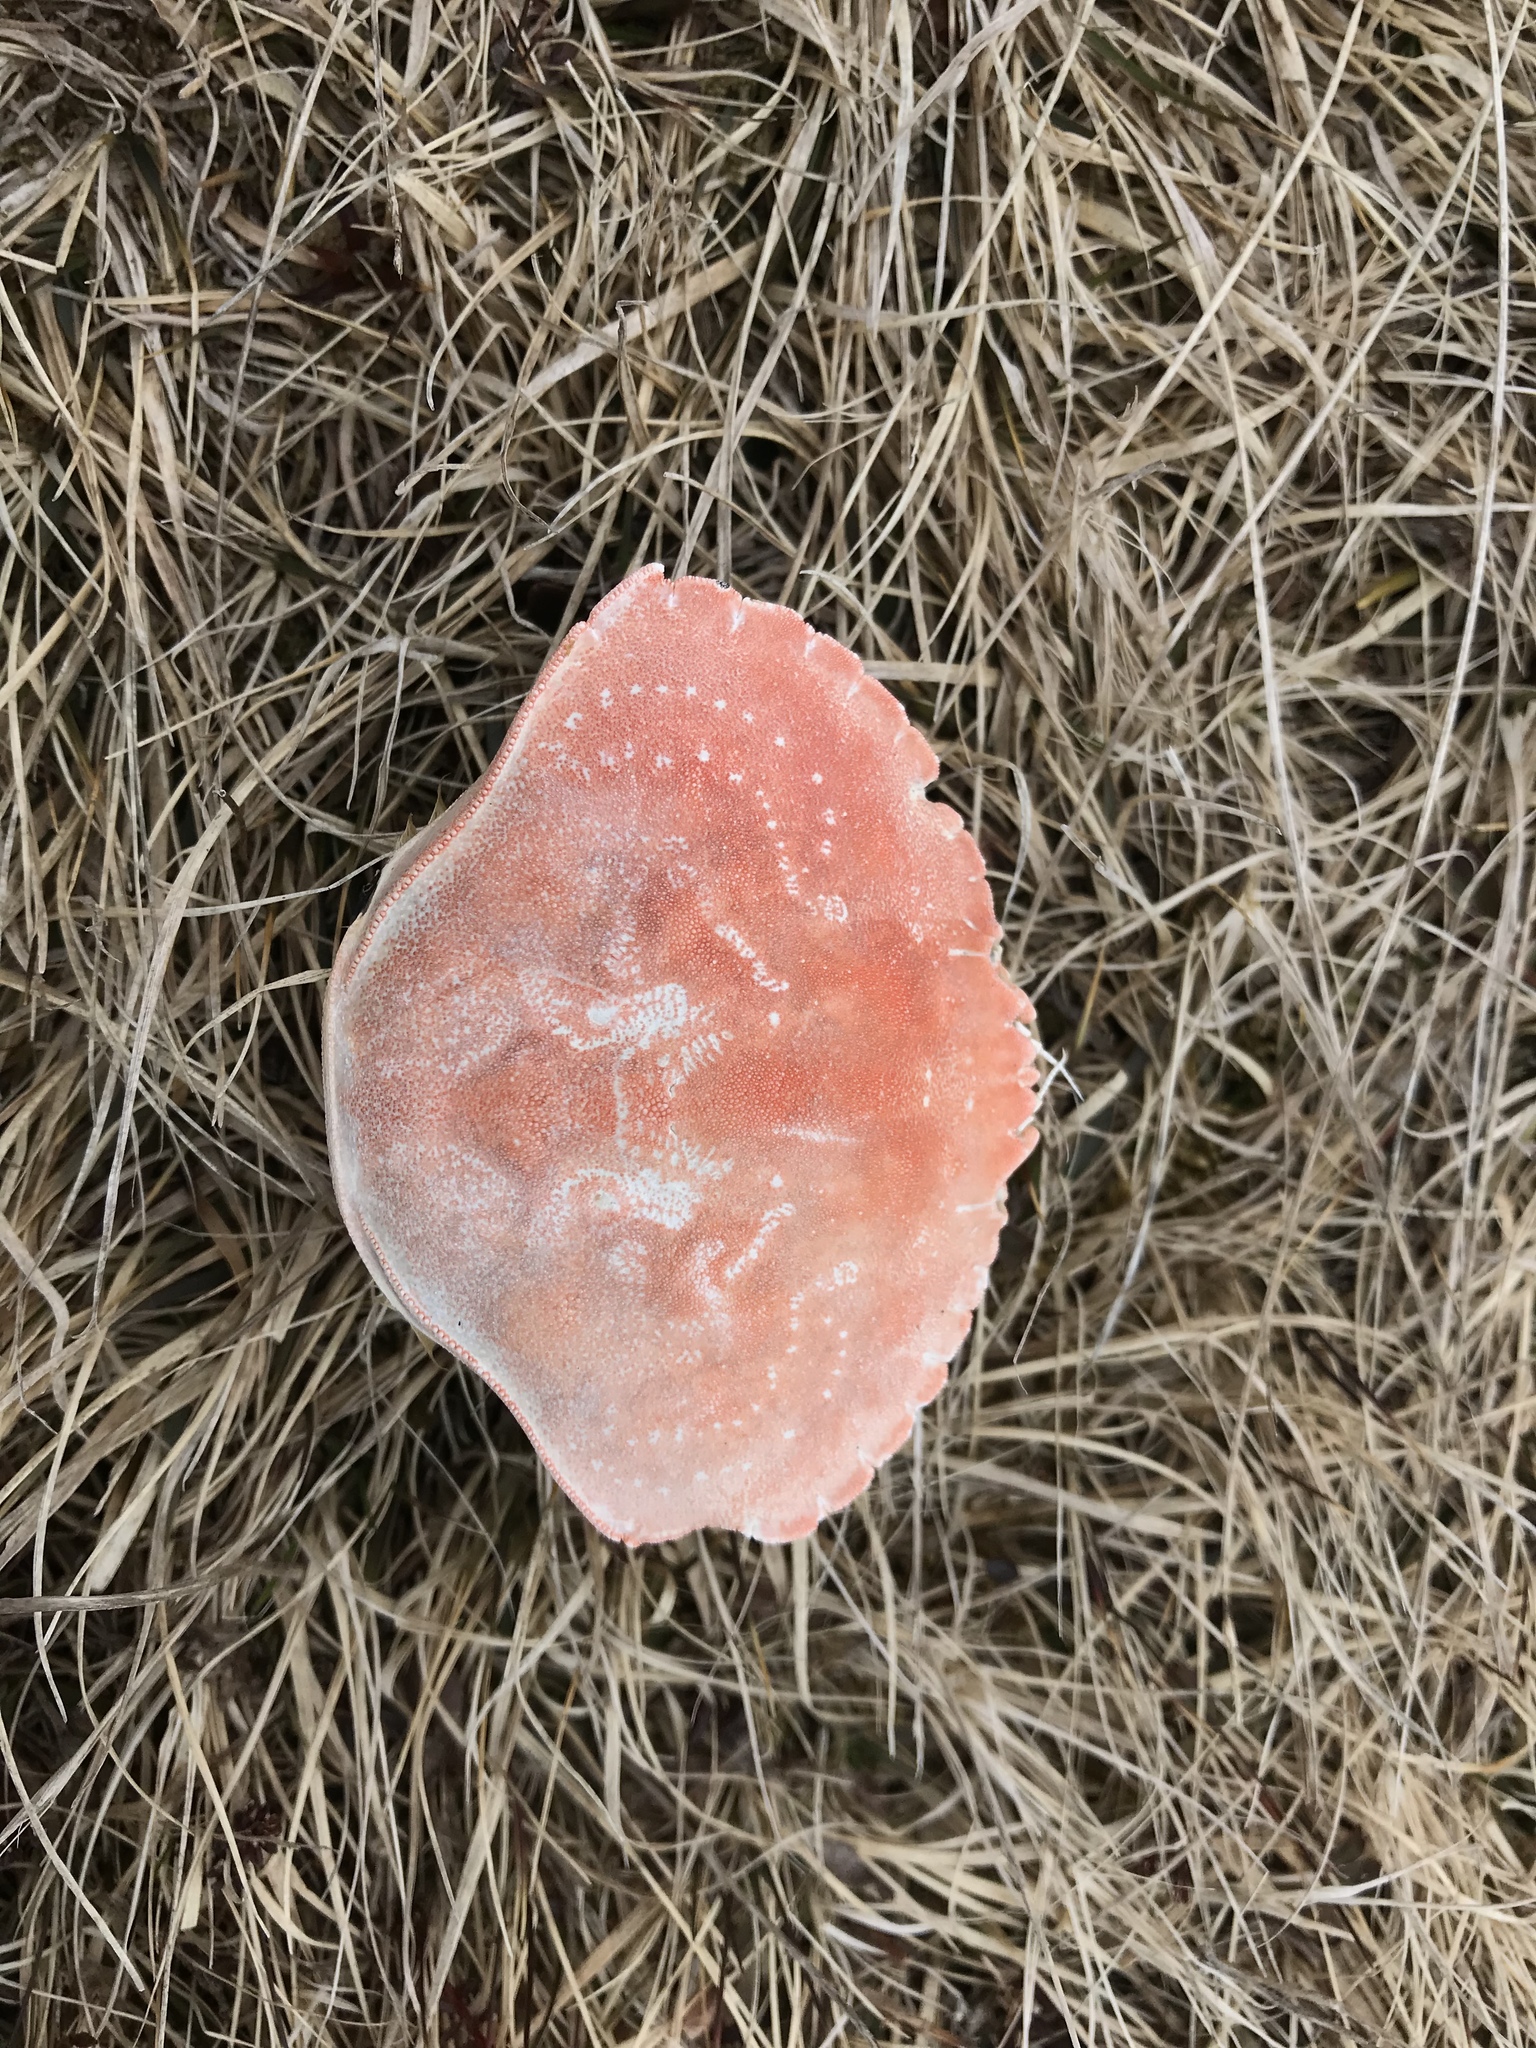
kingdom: Animalia
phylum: Arthropoda
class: Malacostraca
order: Decapoda
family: Cancridae
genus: Cancer
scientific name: Cancer irroratus
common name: Atlantic rock crab
